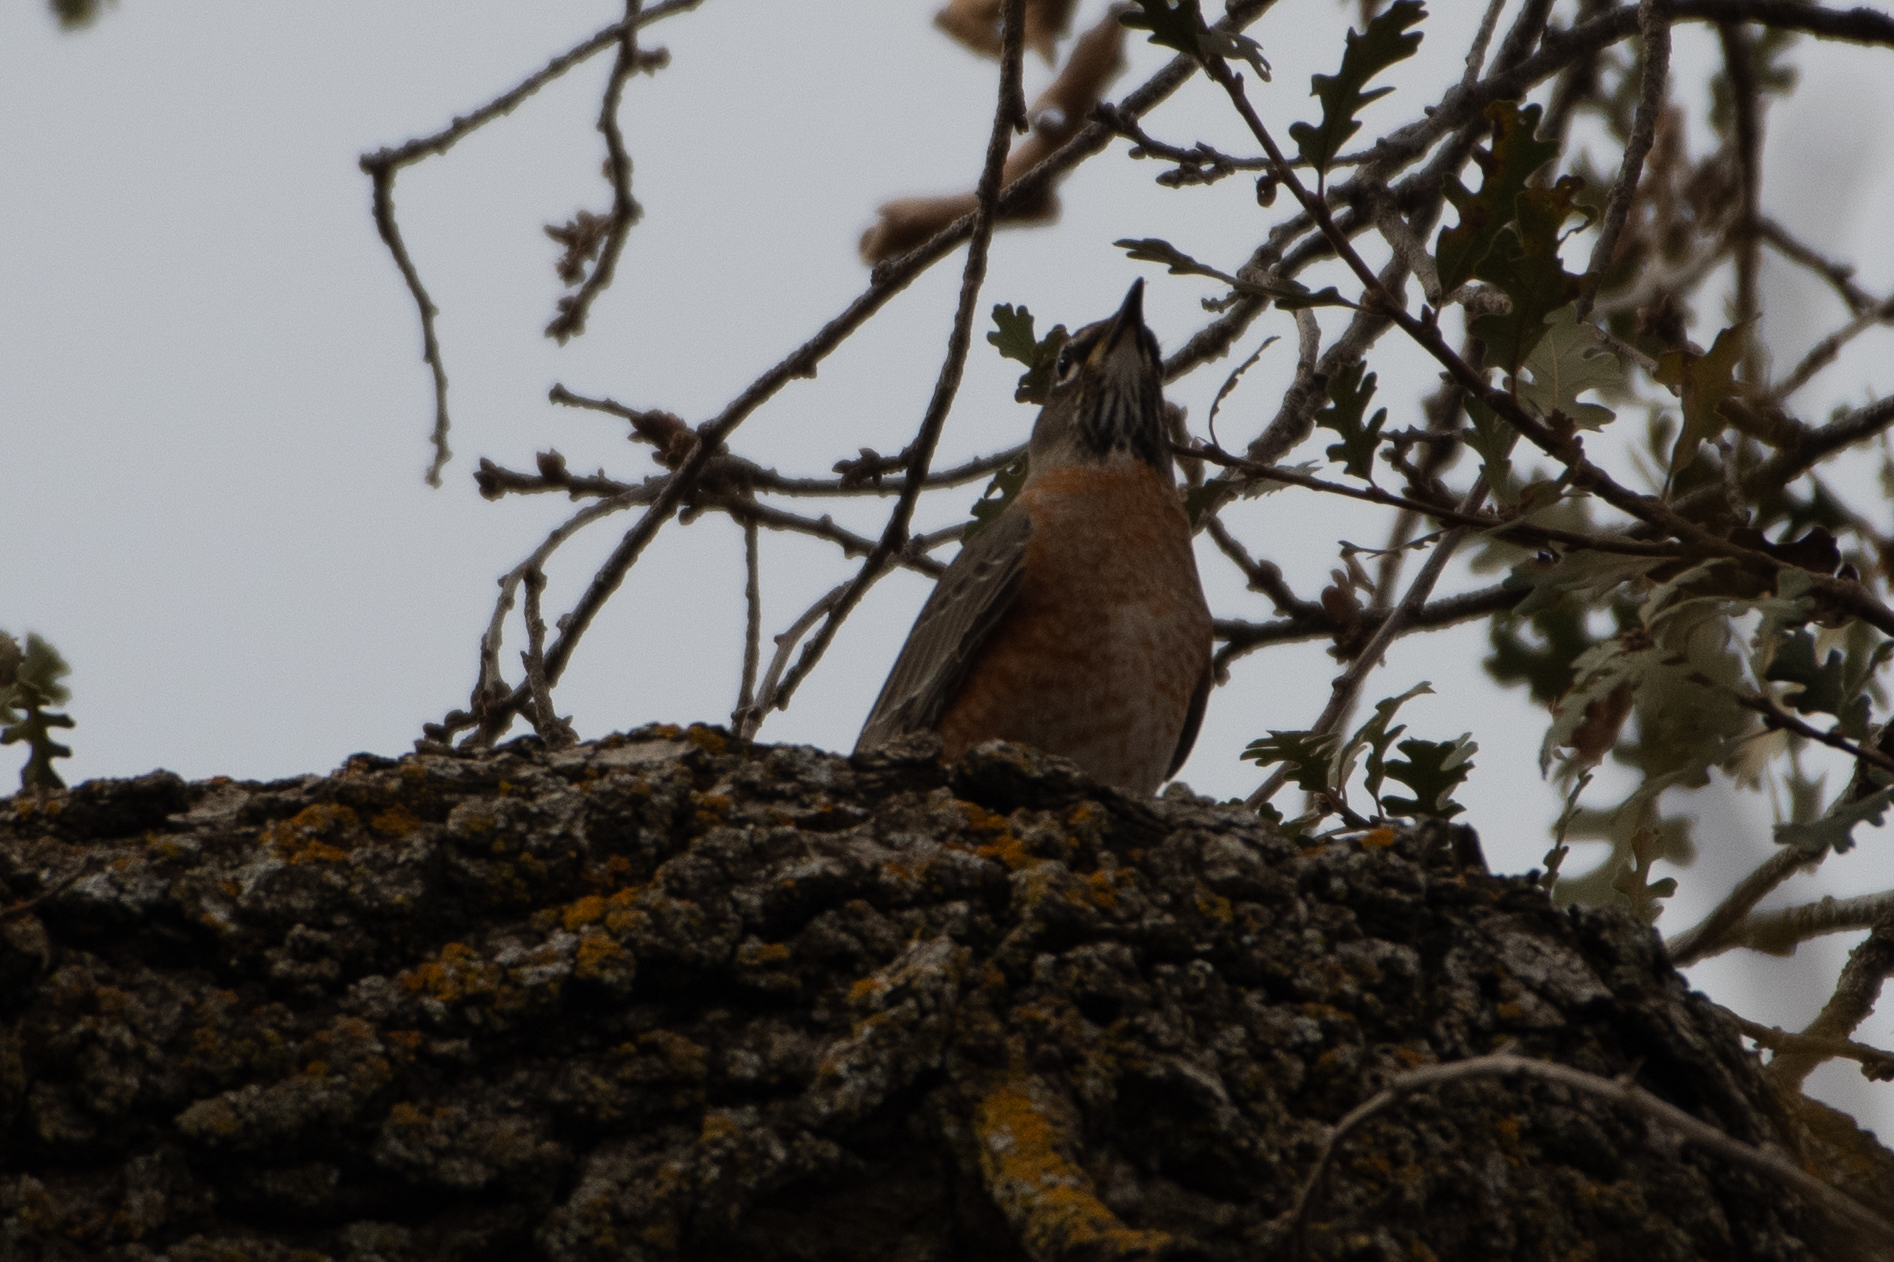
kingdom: Animalia
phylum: Chordata
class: Aves
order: Passeriformes
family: Turdidae
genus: Turdus
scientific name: Turdus migratorius
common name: American robin
